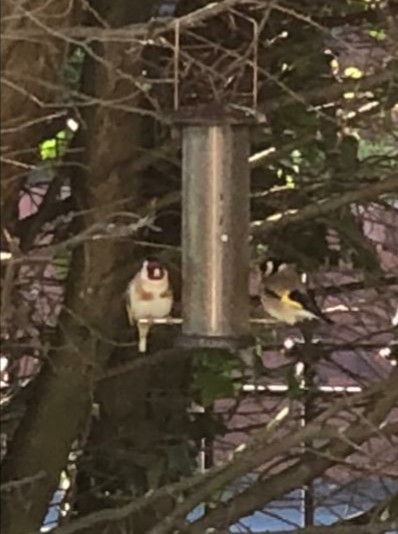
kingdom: Animalia
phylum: Chordata
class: Aves
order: Passeriformes
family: Fringillidae
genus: Carduelis
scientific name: Carduelis carduelis
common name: European goldfinch
